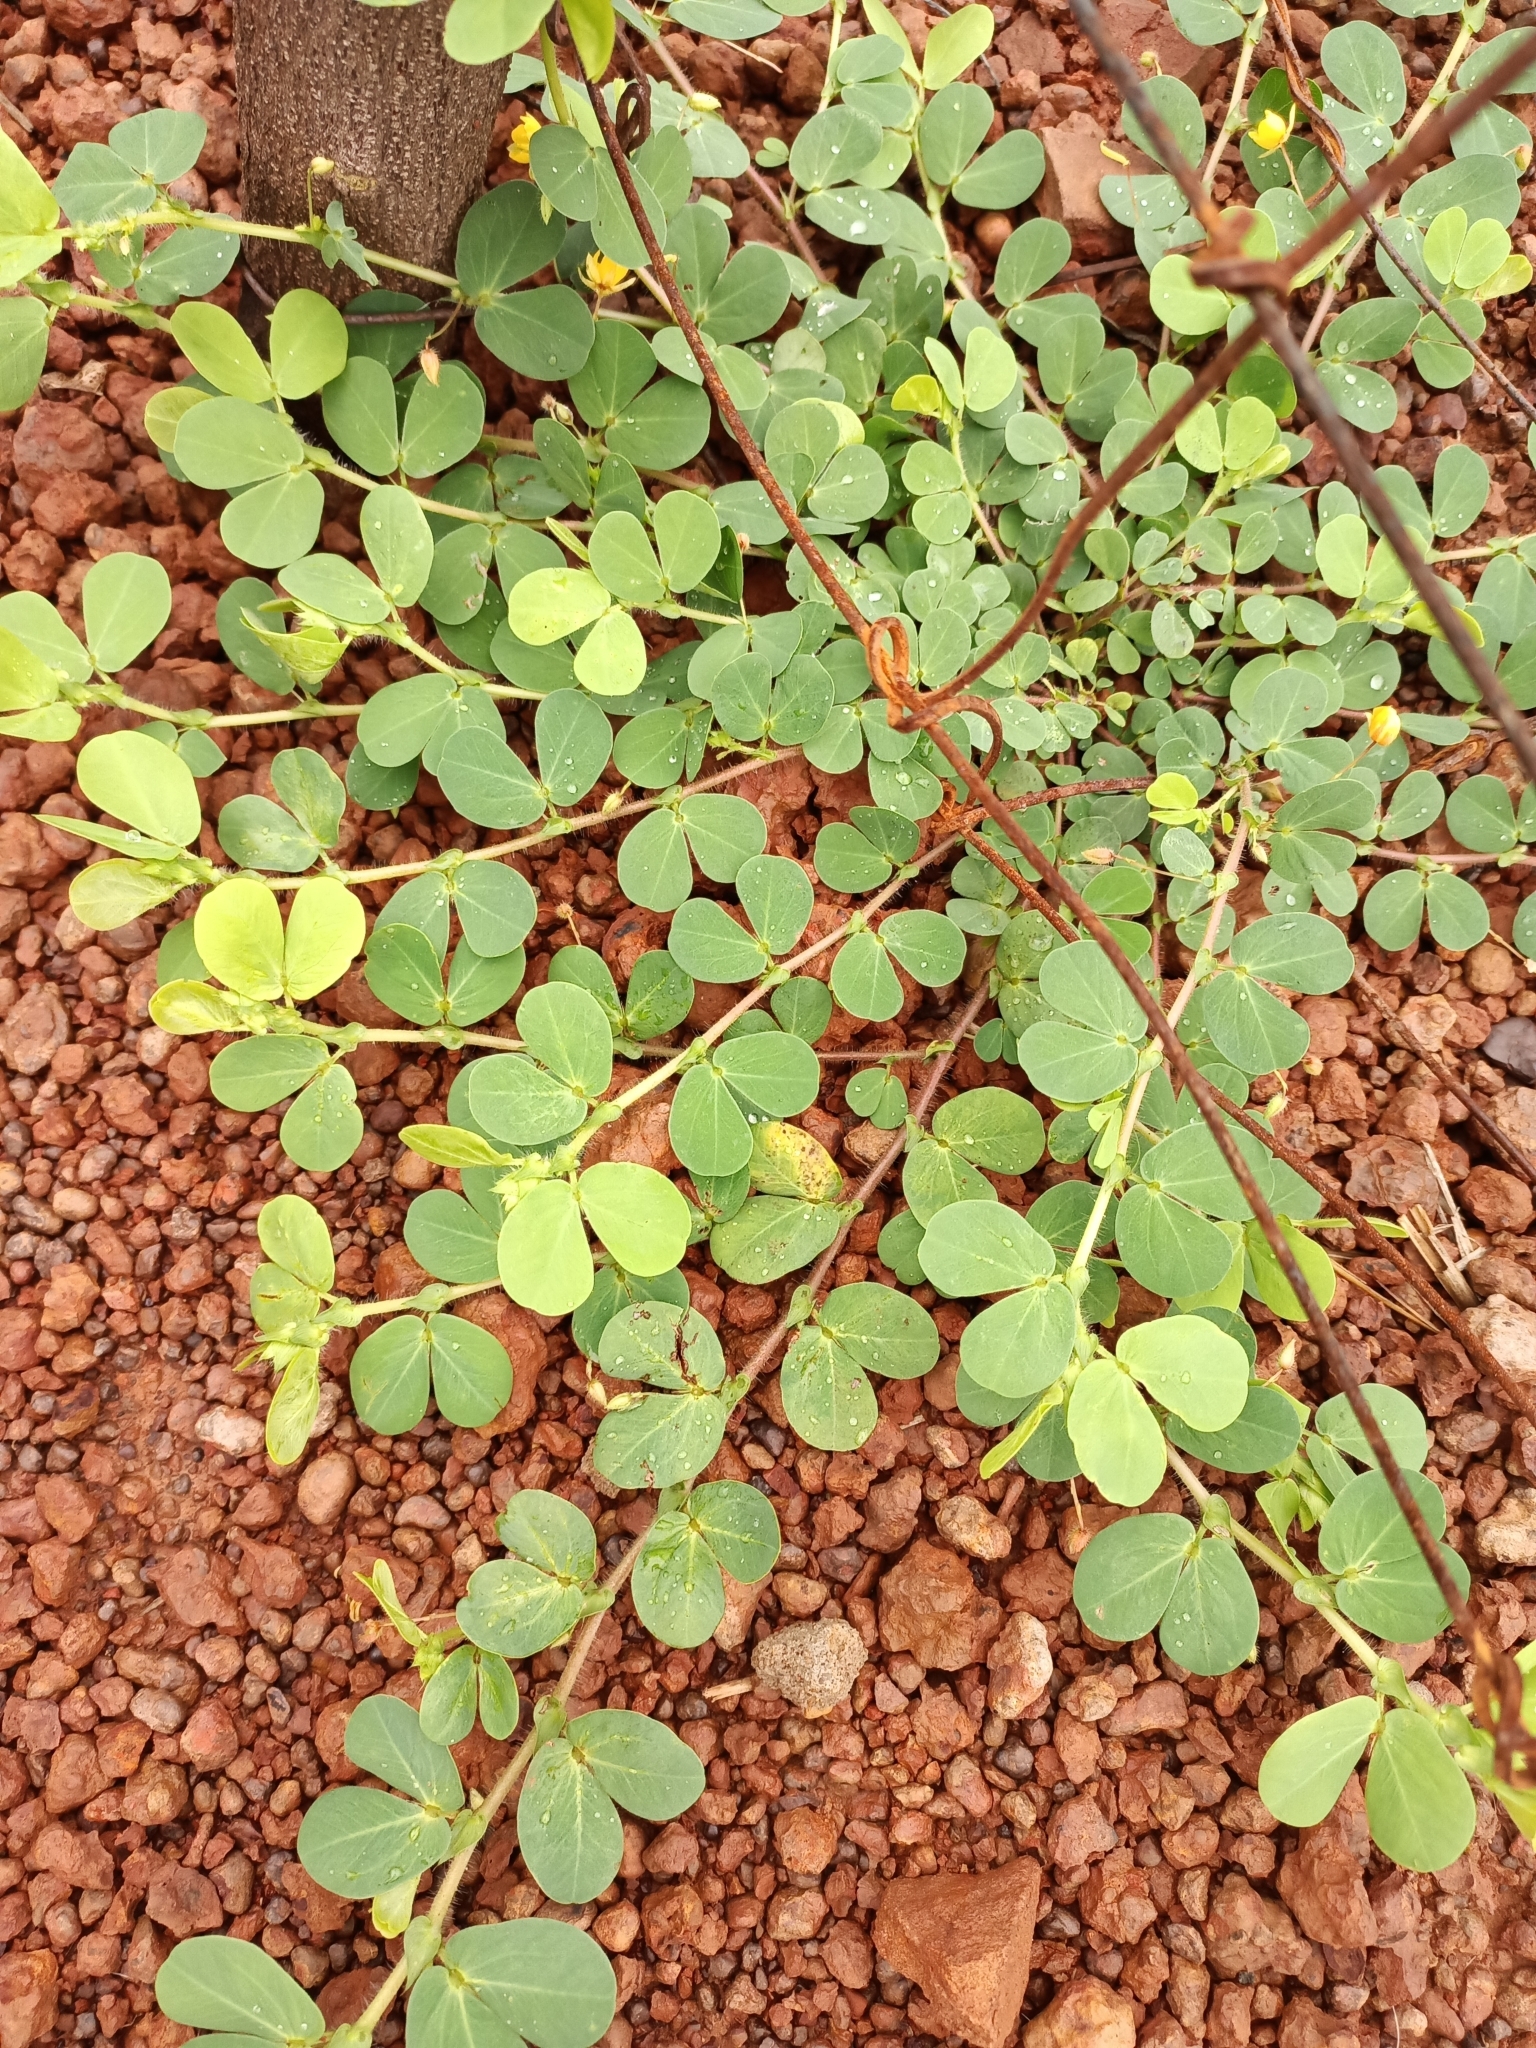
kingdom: Plantae
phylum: Tracheophyta
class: Magnoliopsida
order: Fabales
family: Fabaceae
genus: Chamaecrista
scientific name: Chamaecrista rotundifolia
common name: Round-leaf cassia
